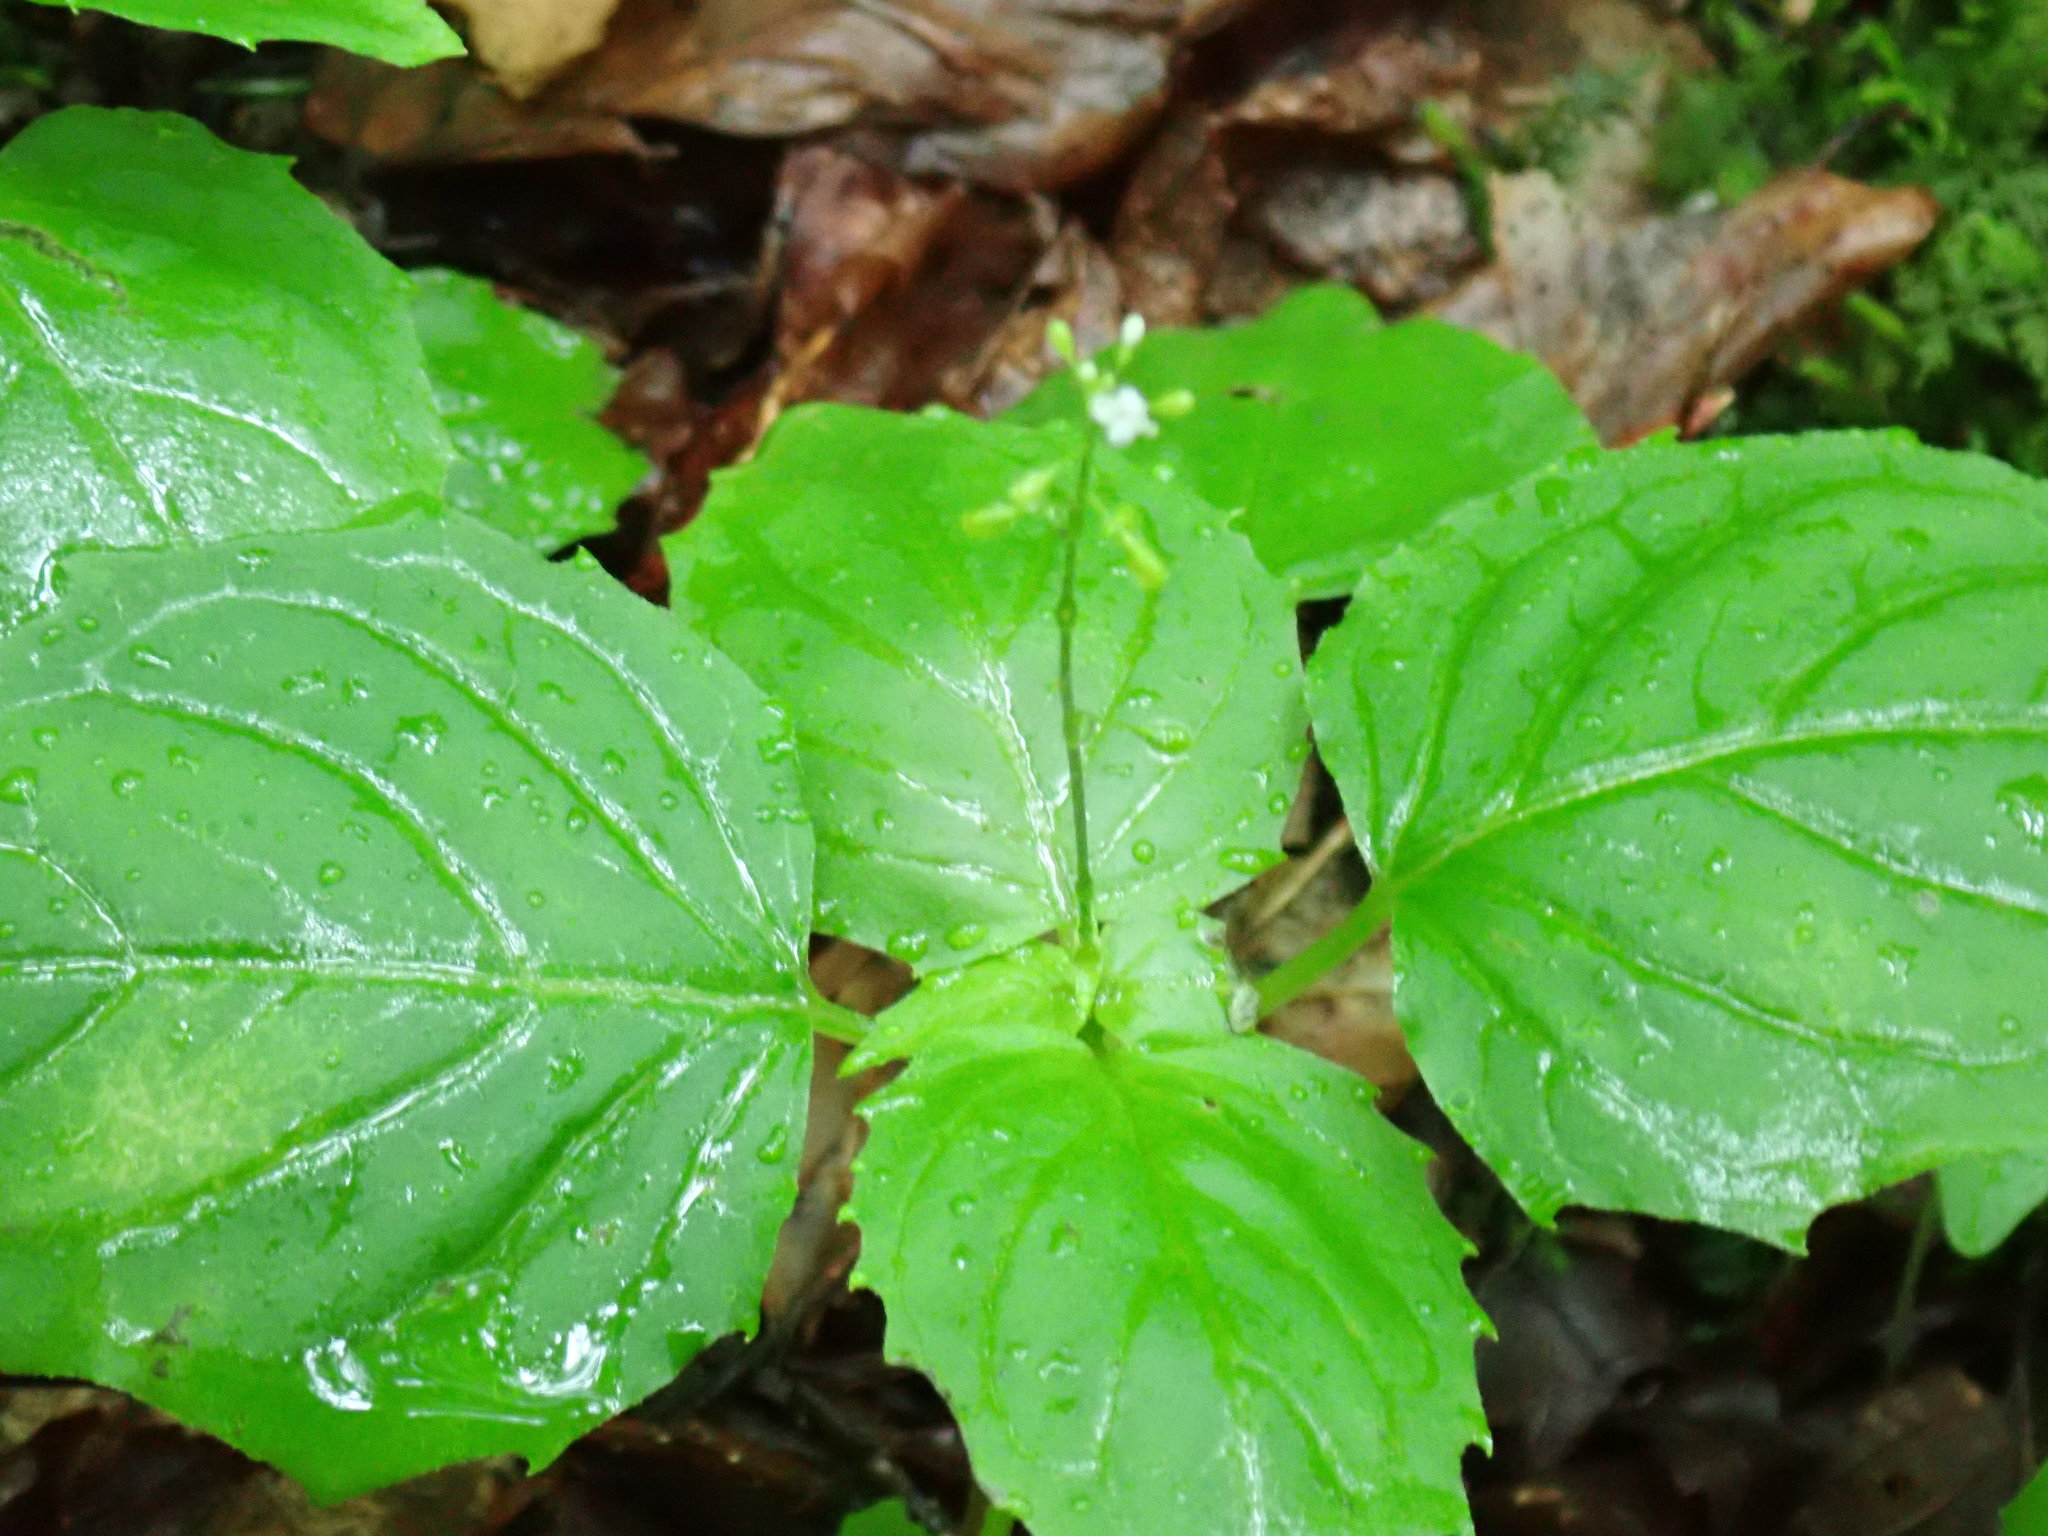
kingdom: Plantae
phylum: Tracheophyta
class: Magnoliopsida
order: Myrtales
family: Onagraceae
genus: Circaea
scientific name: Circaea alpina
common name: Alpine enchanter's-nightshade
